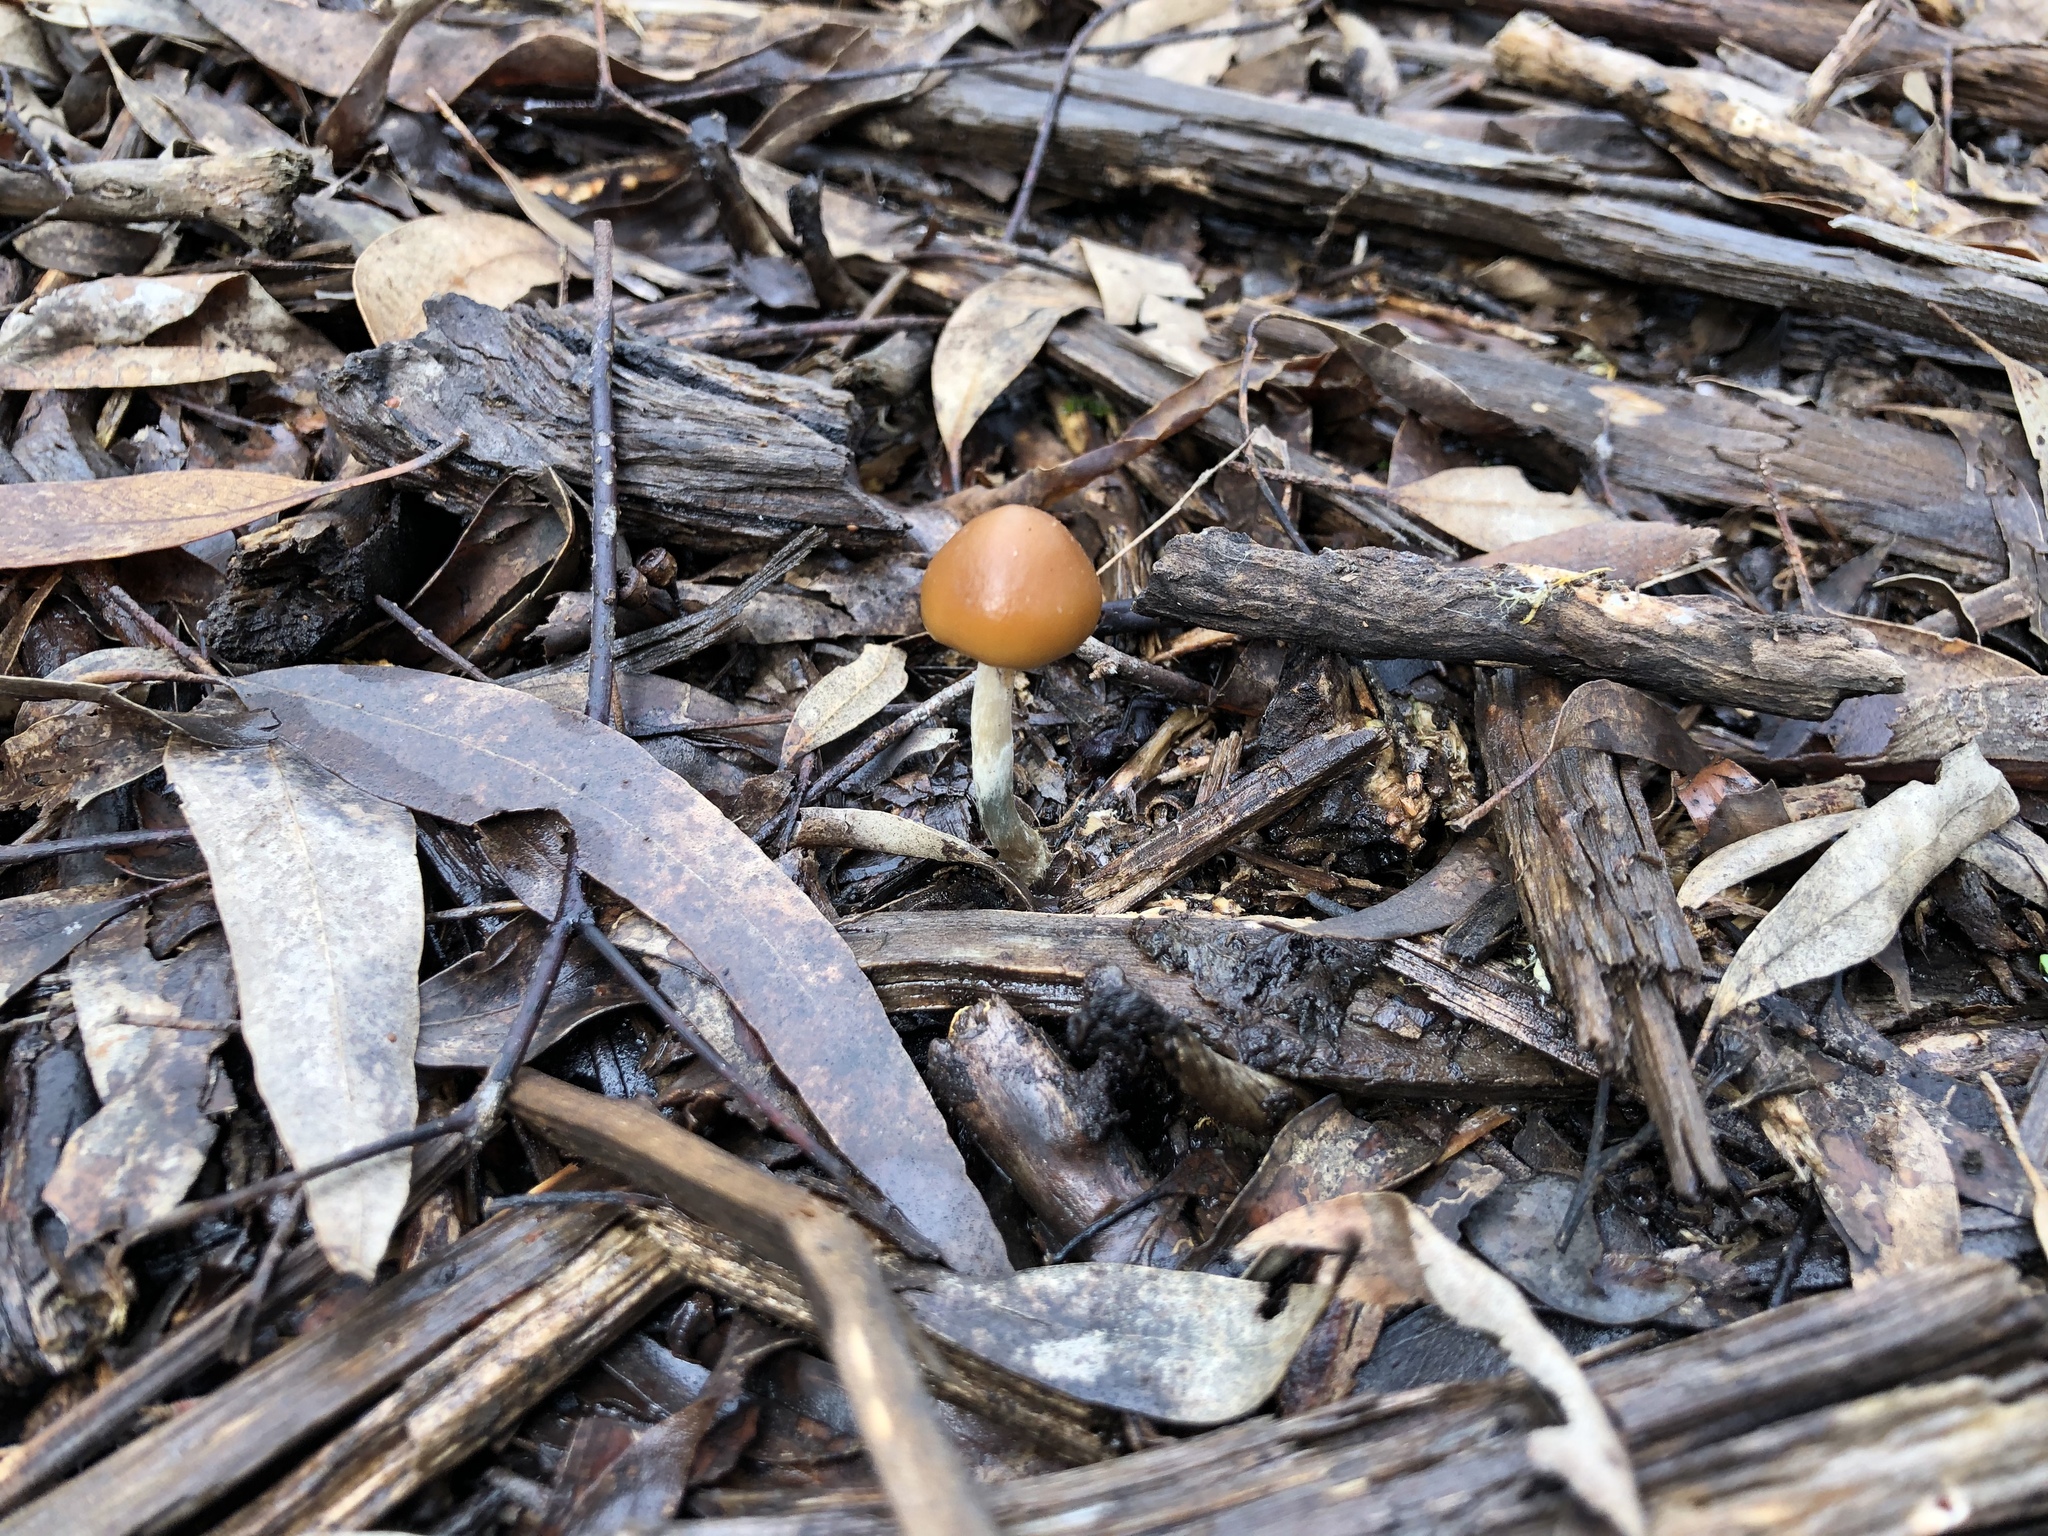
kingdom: Fungi
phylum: Basidiomycota
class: Agaricomycetes
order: Agaricales
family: Hymenogastraceae
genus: Psilocybe
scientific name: Psilocybe subaeruginosa
